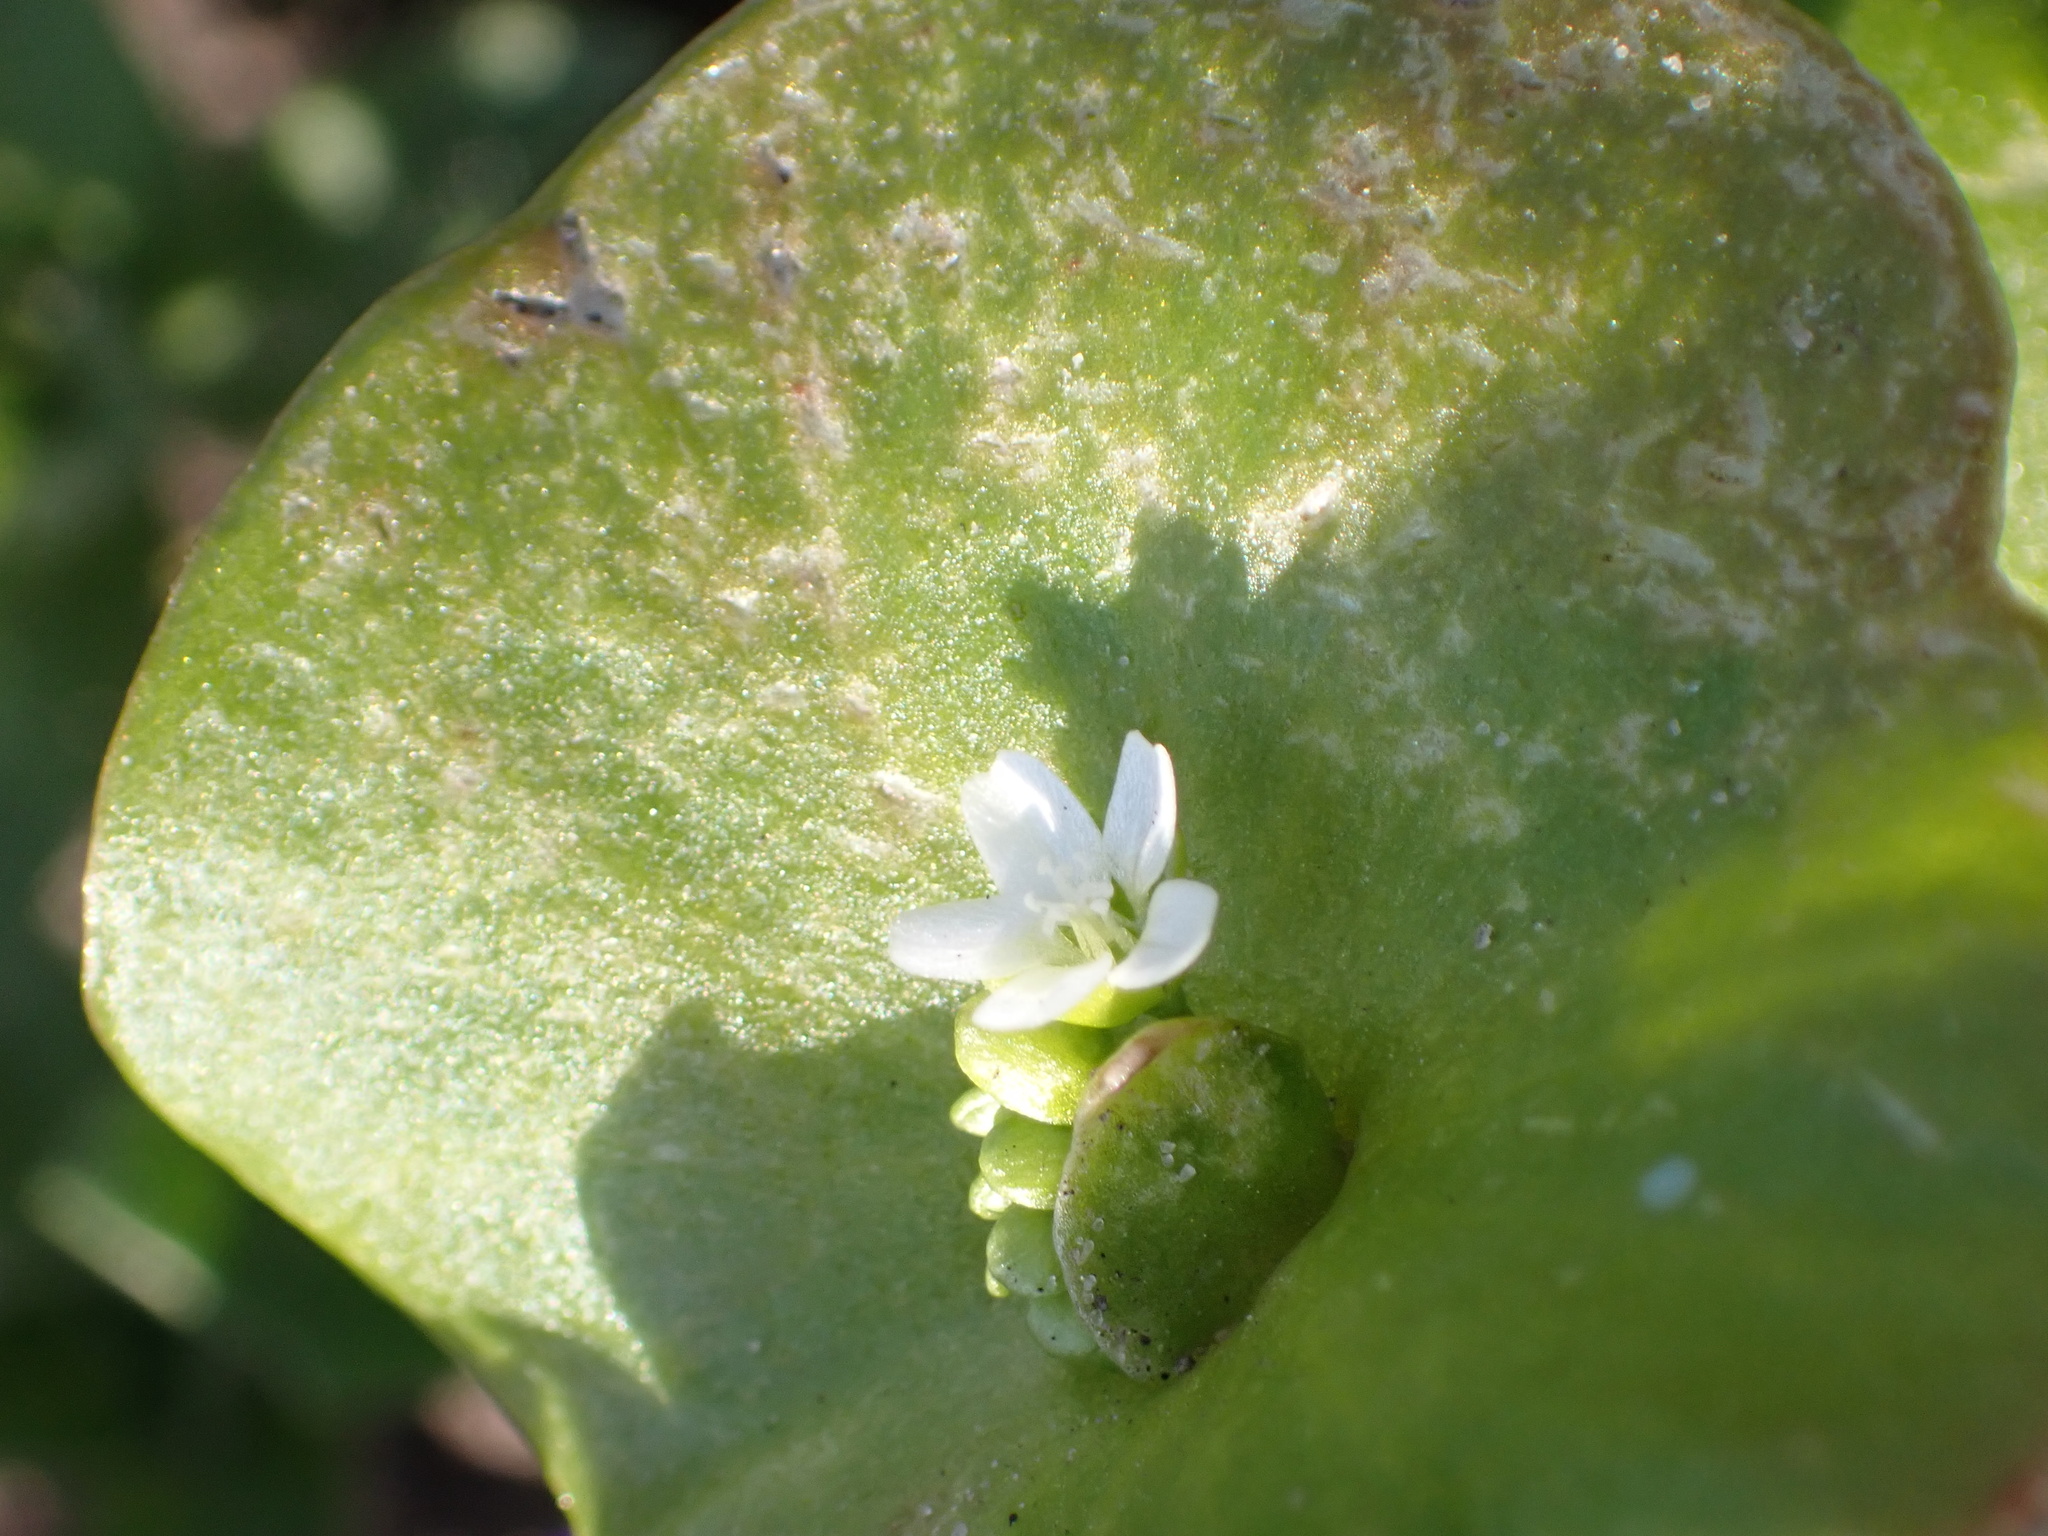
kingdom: Plantae
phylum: Tracheophyta
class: Magnoliopsida
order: Caryophyllales
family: Montiaceae
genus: Claytonia
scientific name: Claytonia perfoliata
